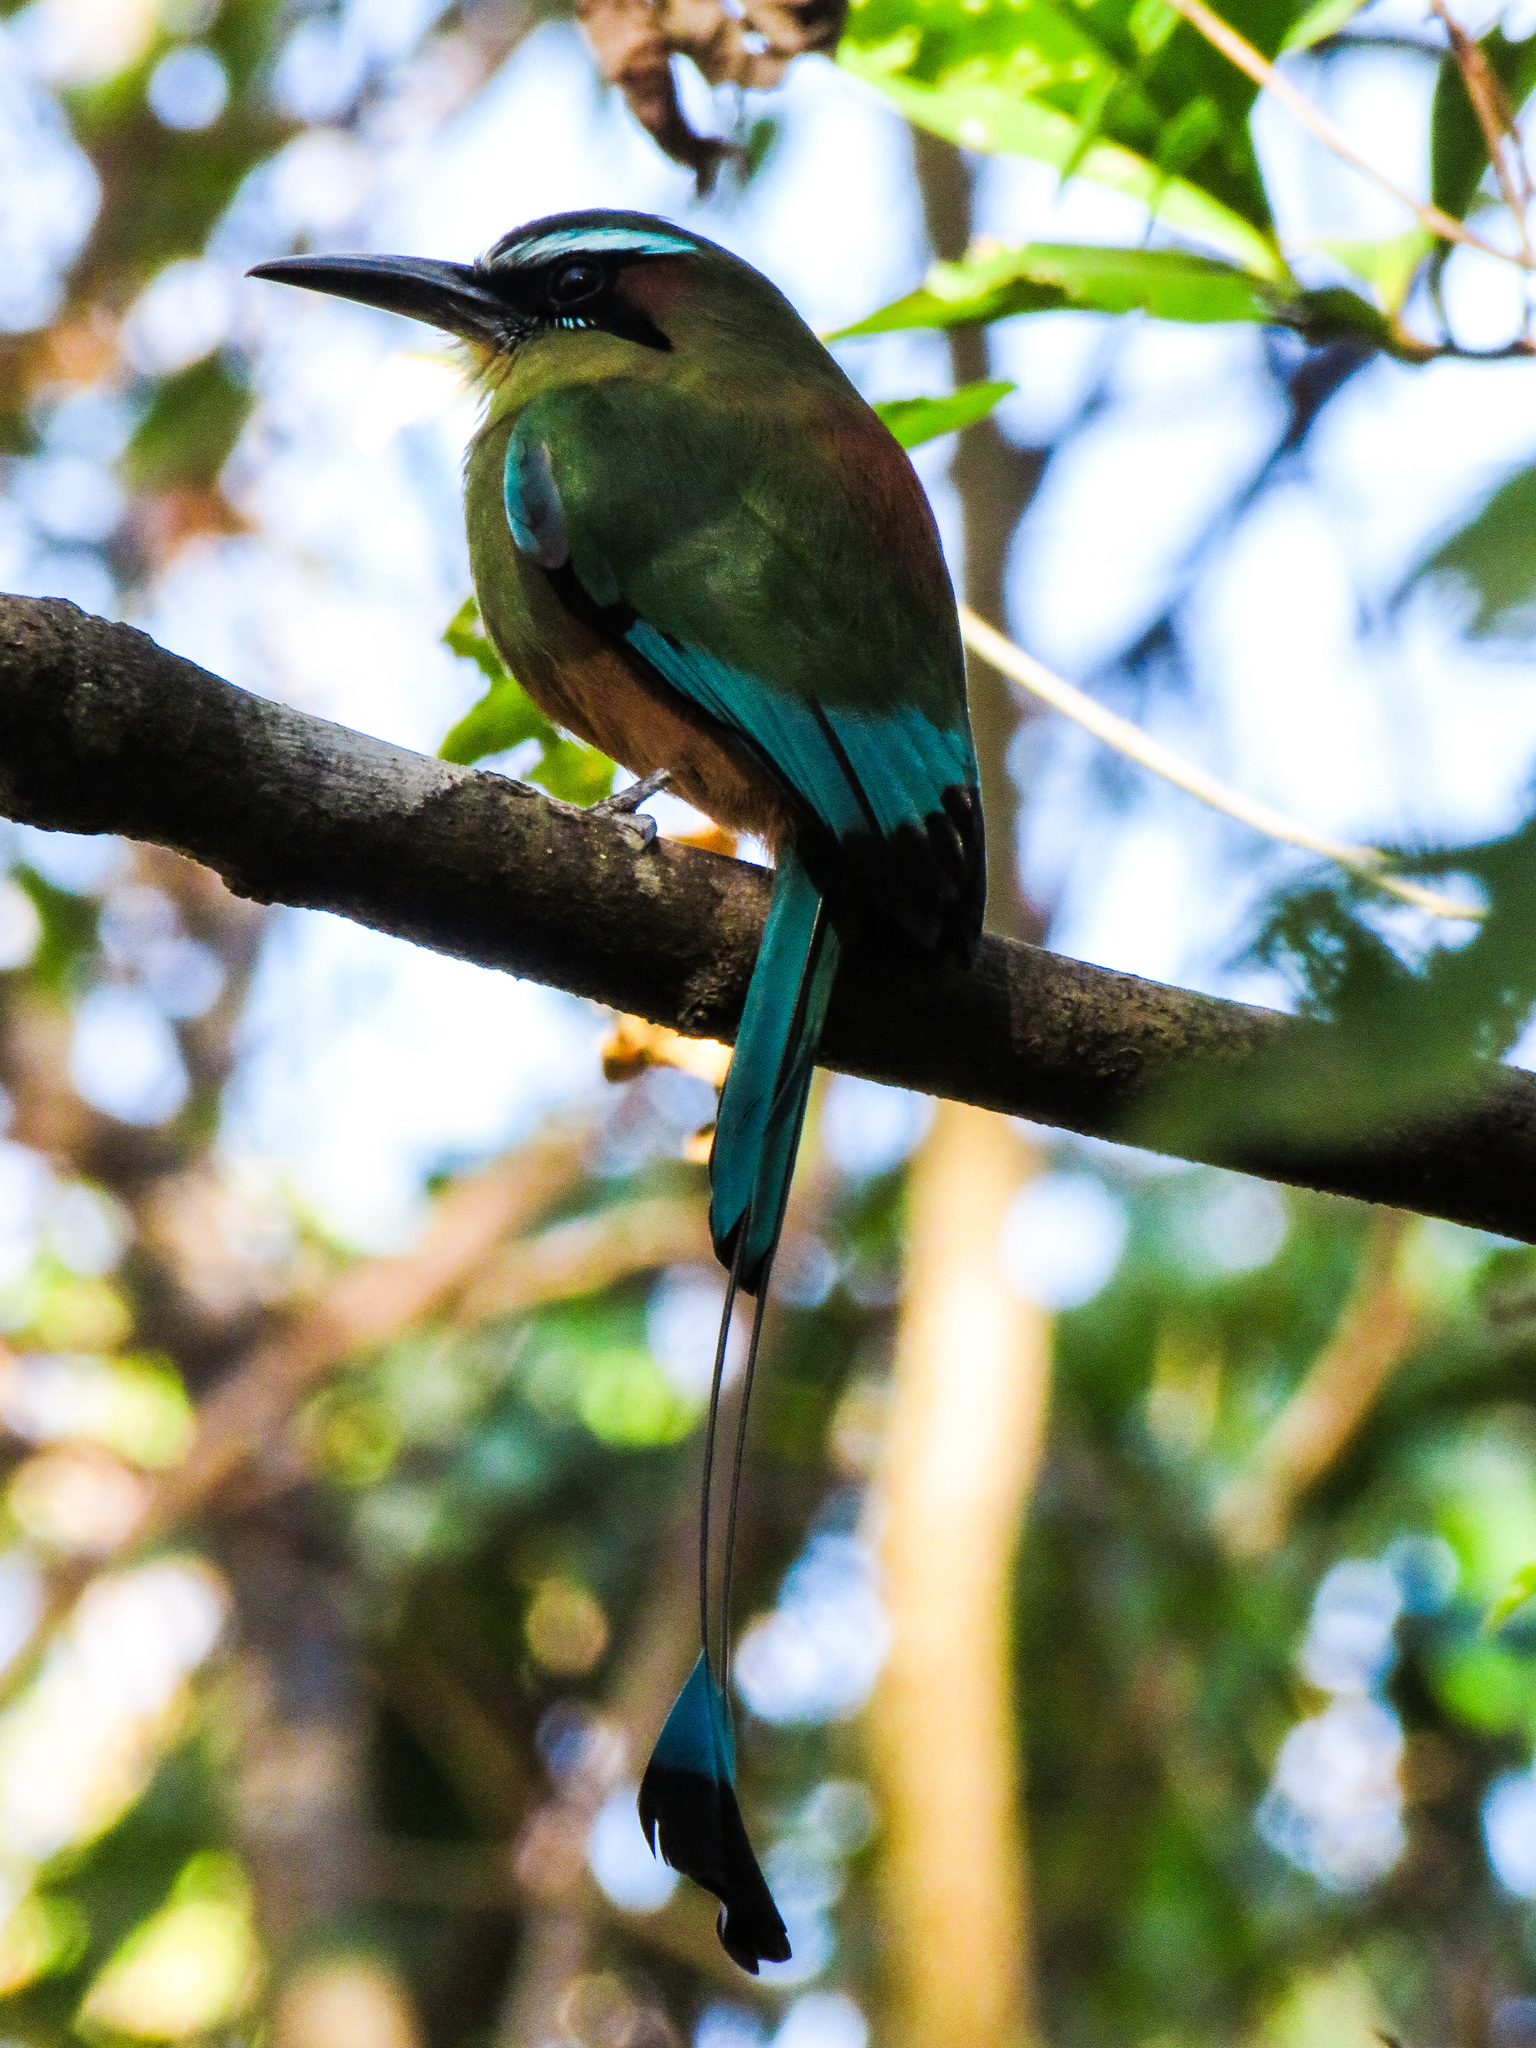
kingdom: Animalia
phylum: Chordata
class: Aves
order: Coraciiformes
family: Momotidae
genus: Eumomota
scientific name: Eumomota superciliosa
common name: Turquoise-browed motmot
